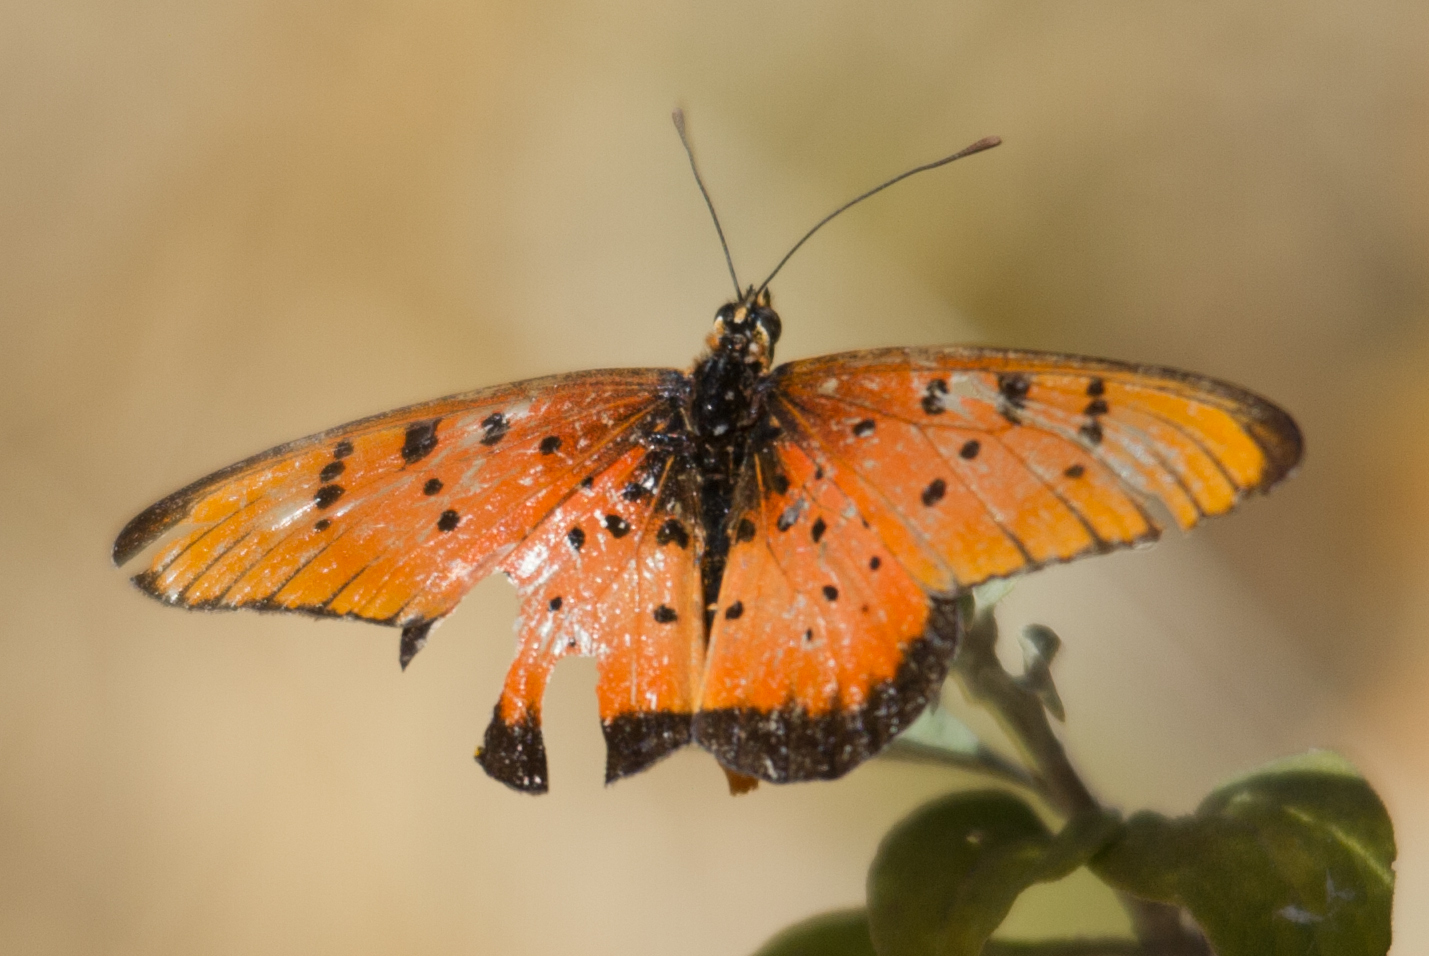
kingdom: Animalia
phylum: Arthropoda
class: Insecta
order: Lepidoptera
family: Nymphalidae
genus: Stephenia
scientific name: Stephenia
